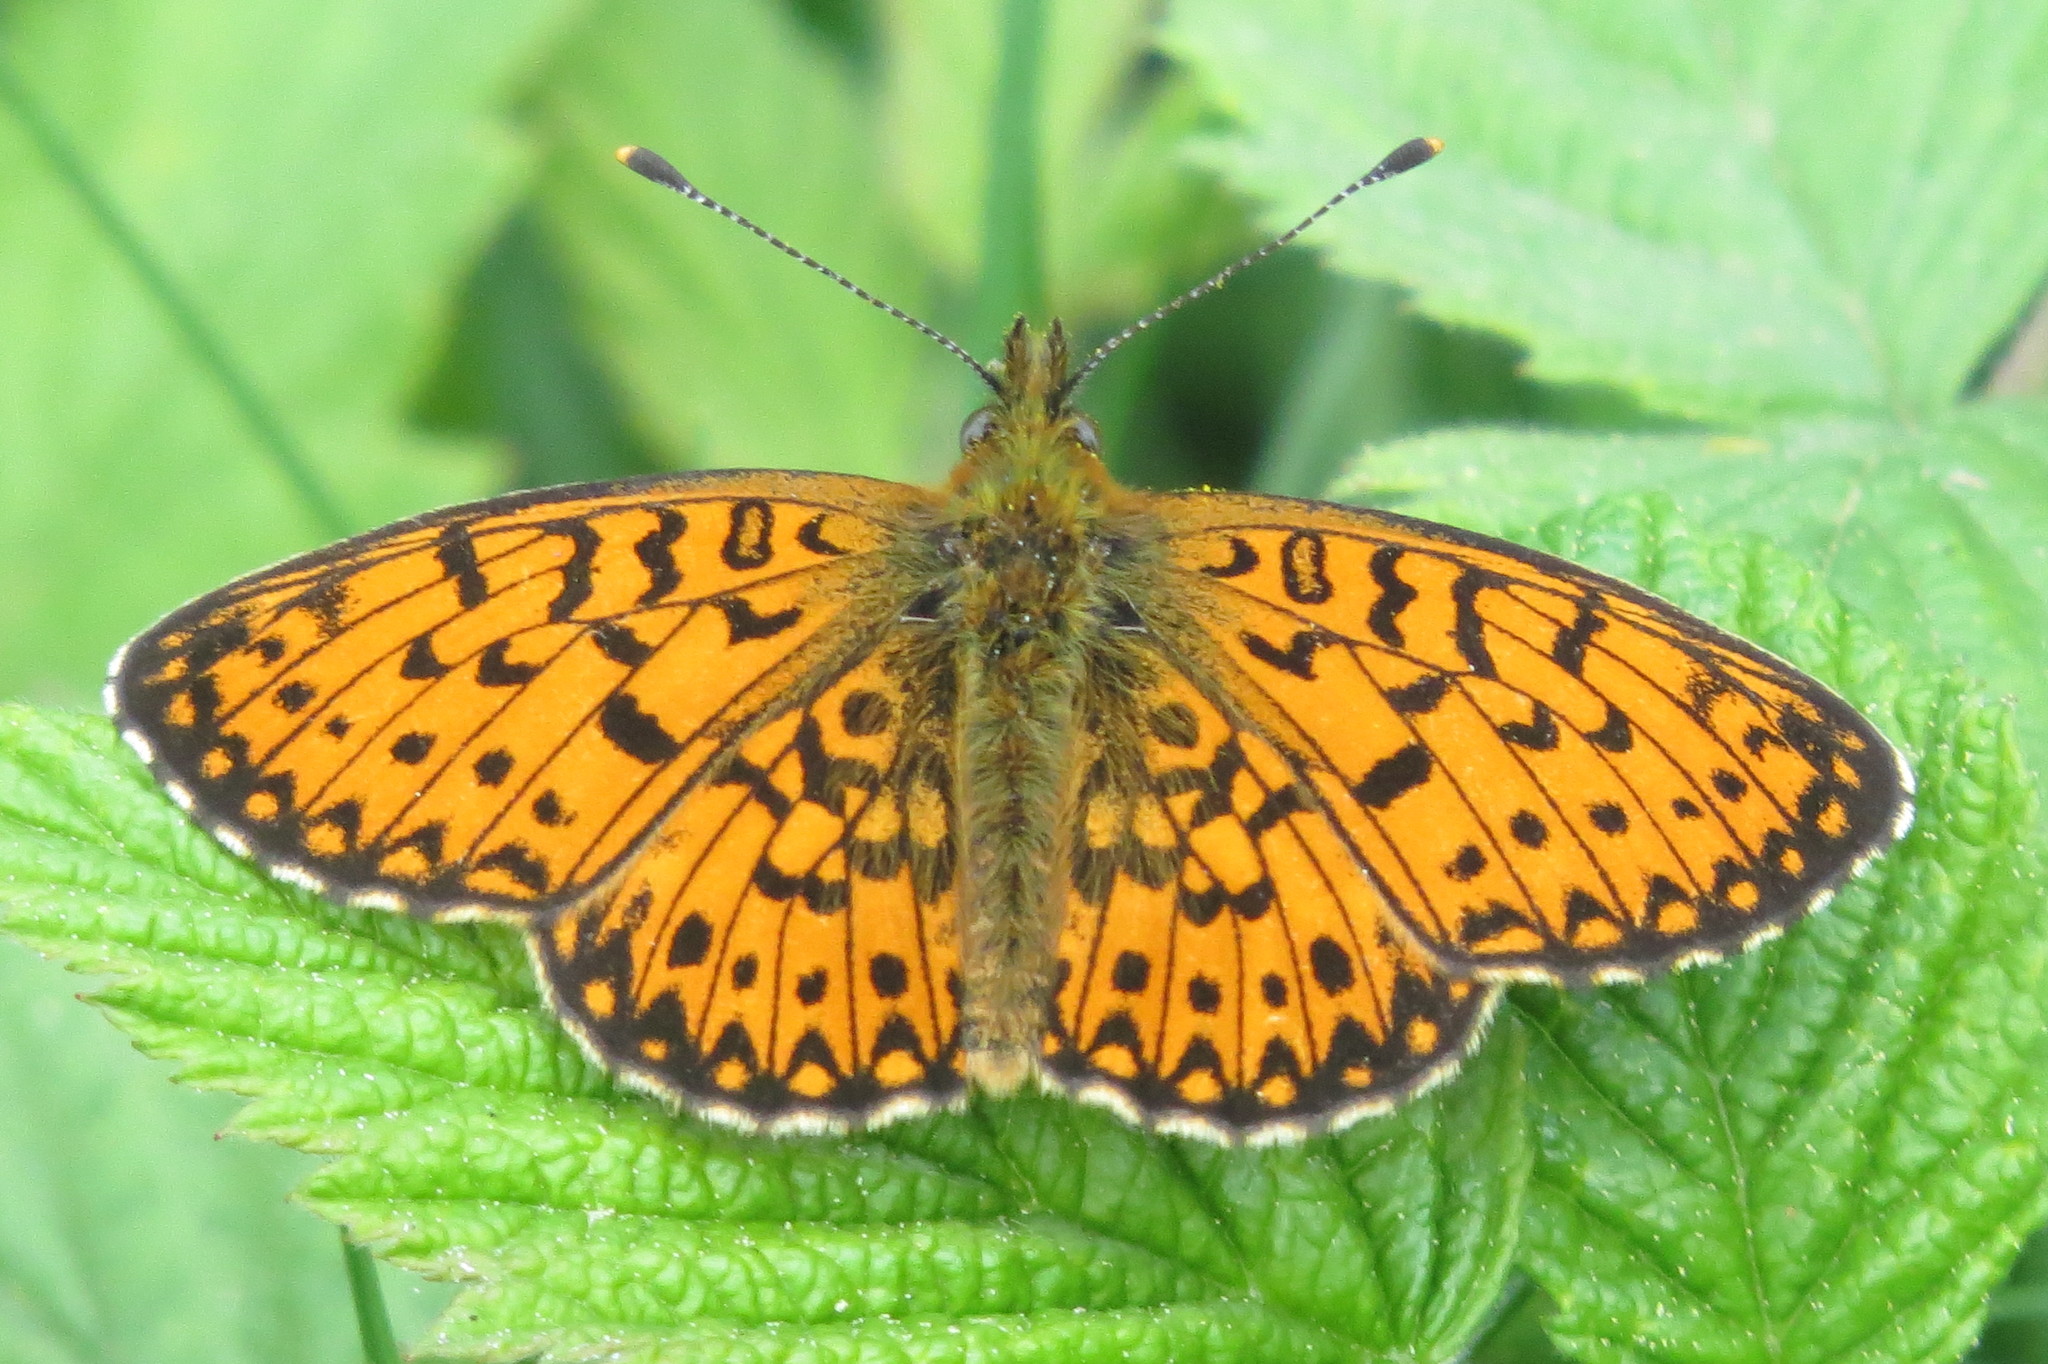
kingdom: Animalia
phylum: Arthropoda
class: Insecta
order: Lepidoptera
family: Nymphalidae
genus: Boloria
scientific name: Boloria selene
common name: Small pearl-bordered fritillary
